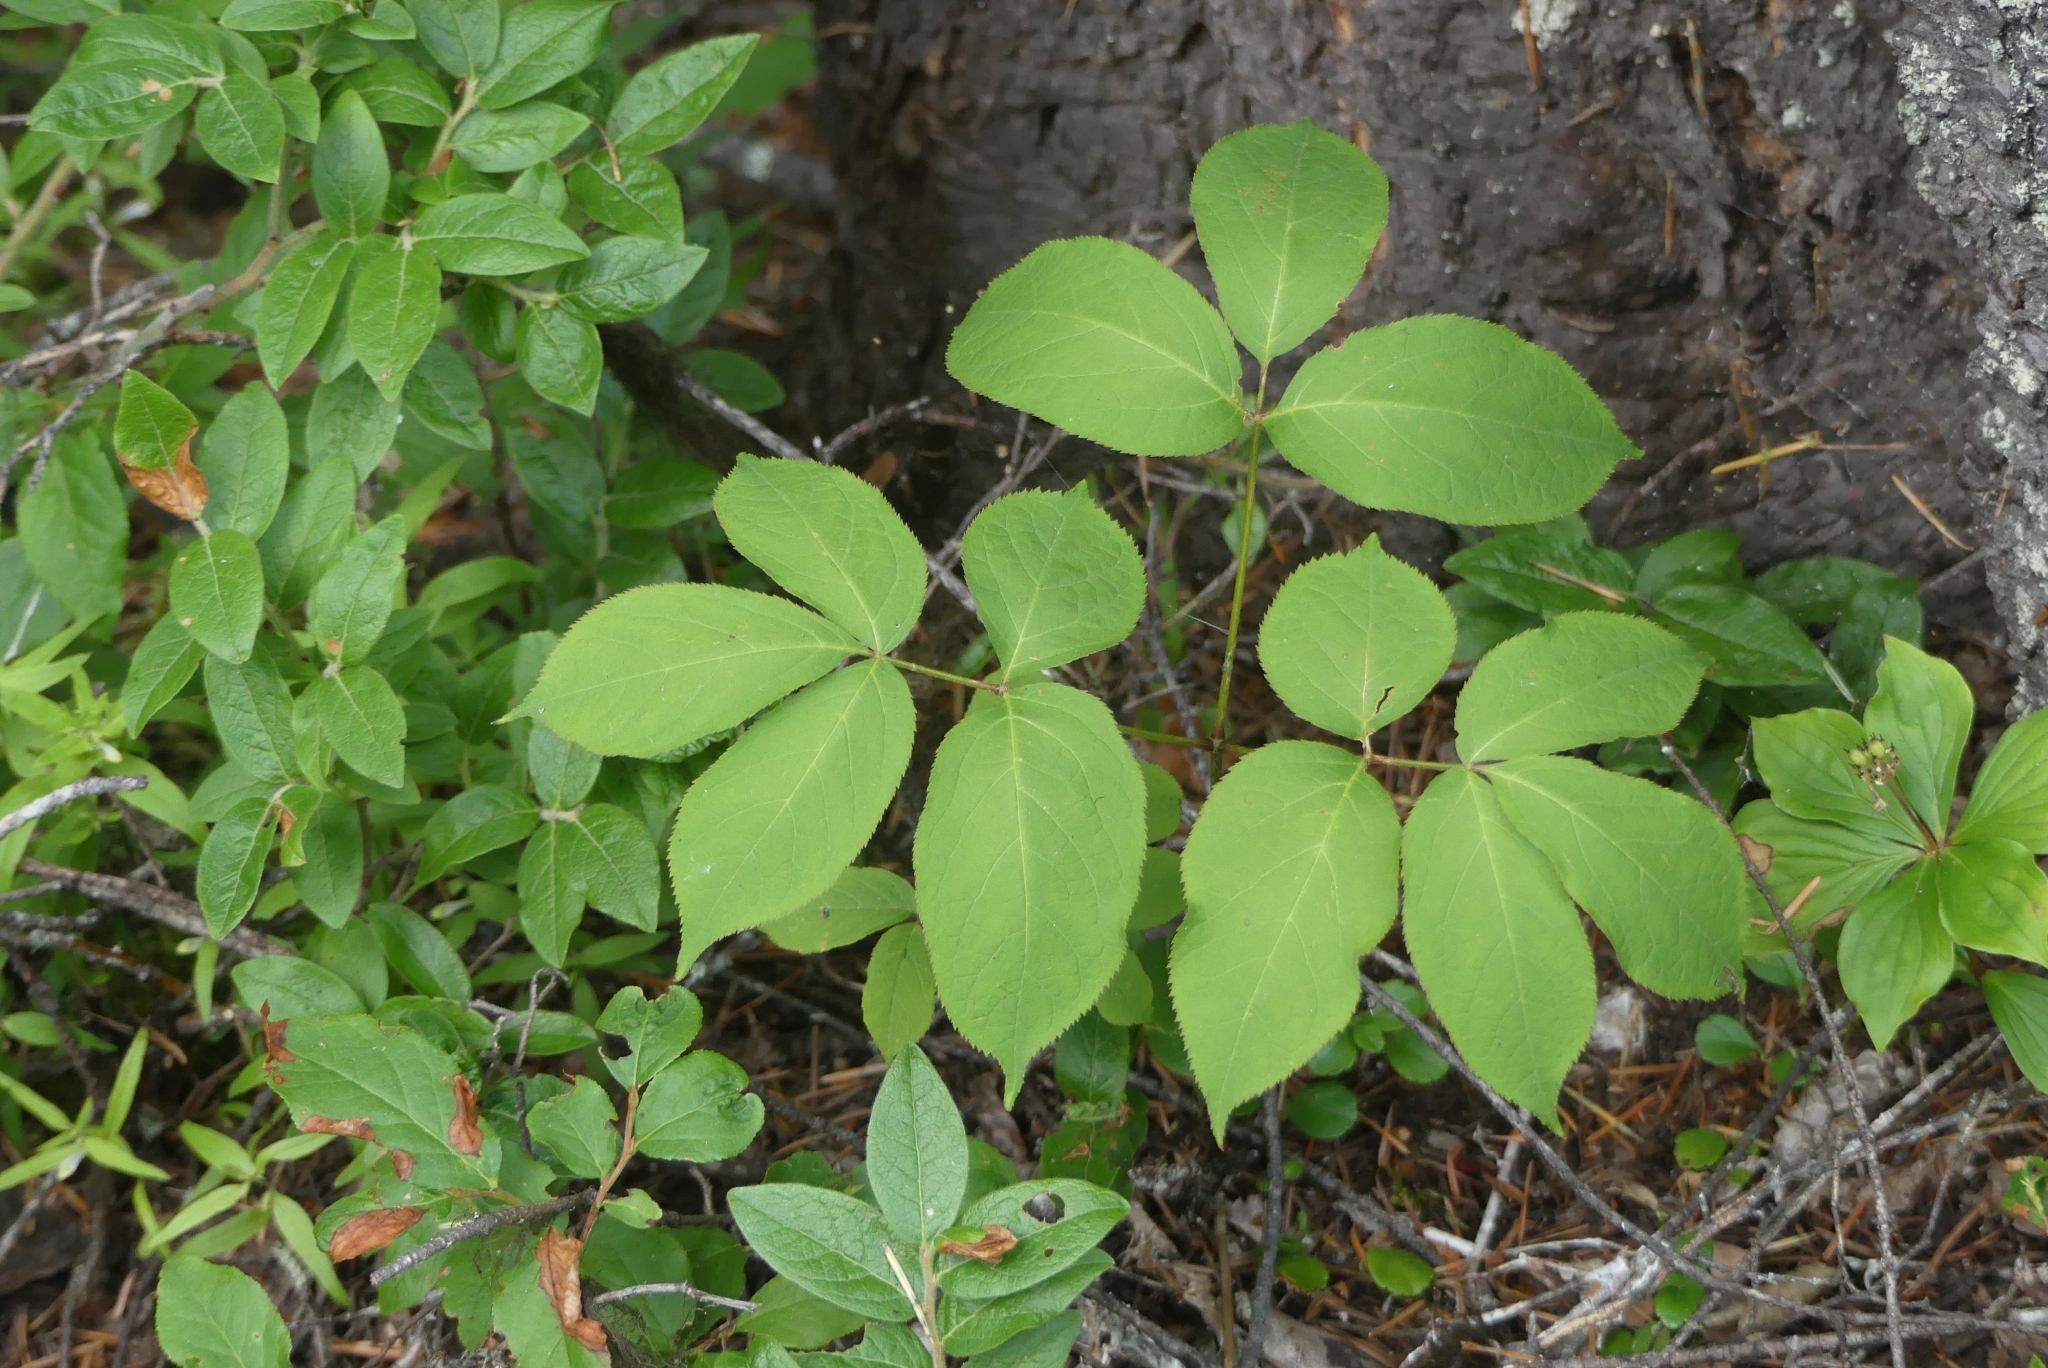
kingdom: Plantae
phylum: Tracheophyta
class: Magnoliopsida
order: Apiales
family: Araliaceae
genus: Aralia
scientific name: Aralia nudicaulis
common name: Wild sarsaparilla
